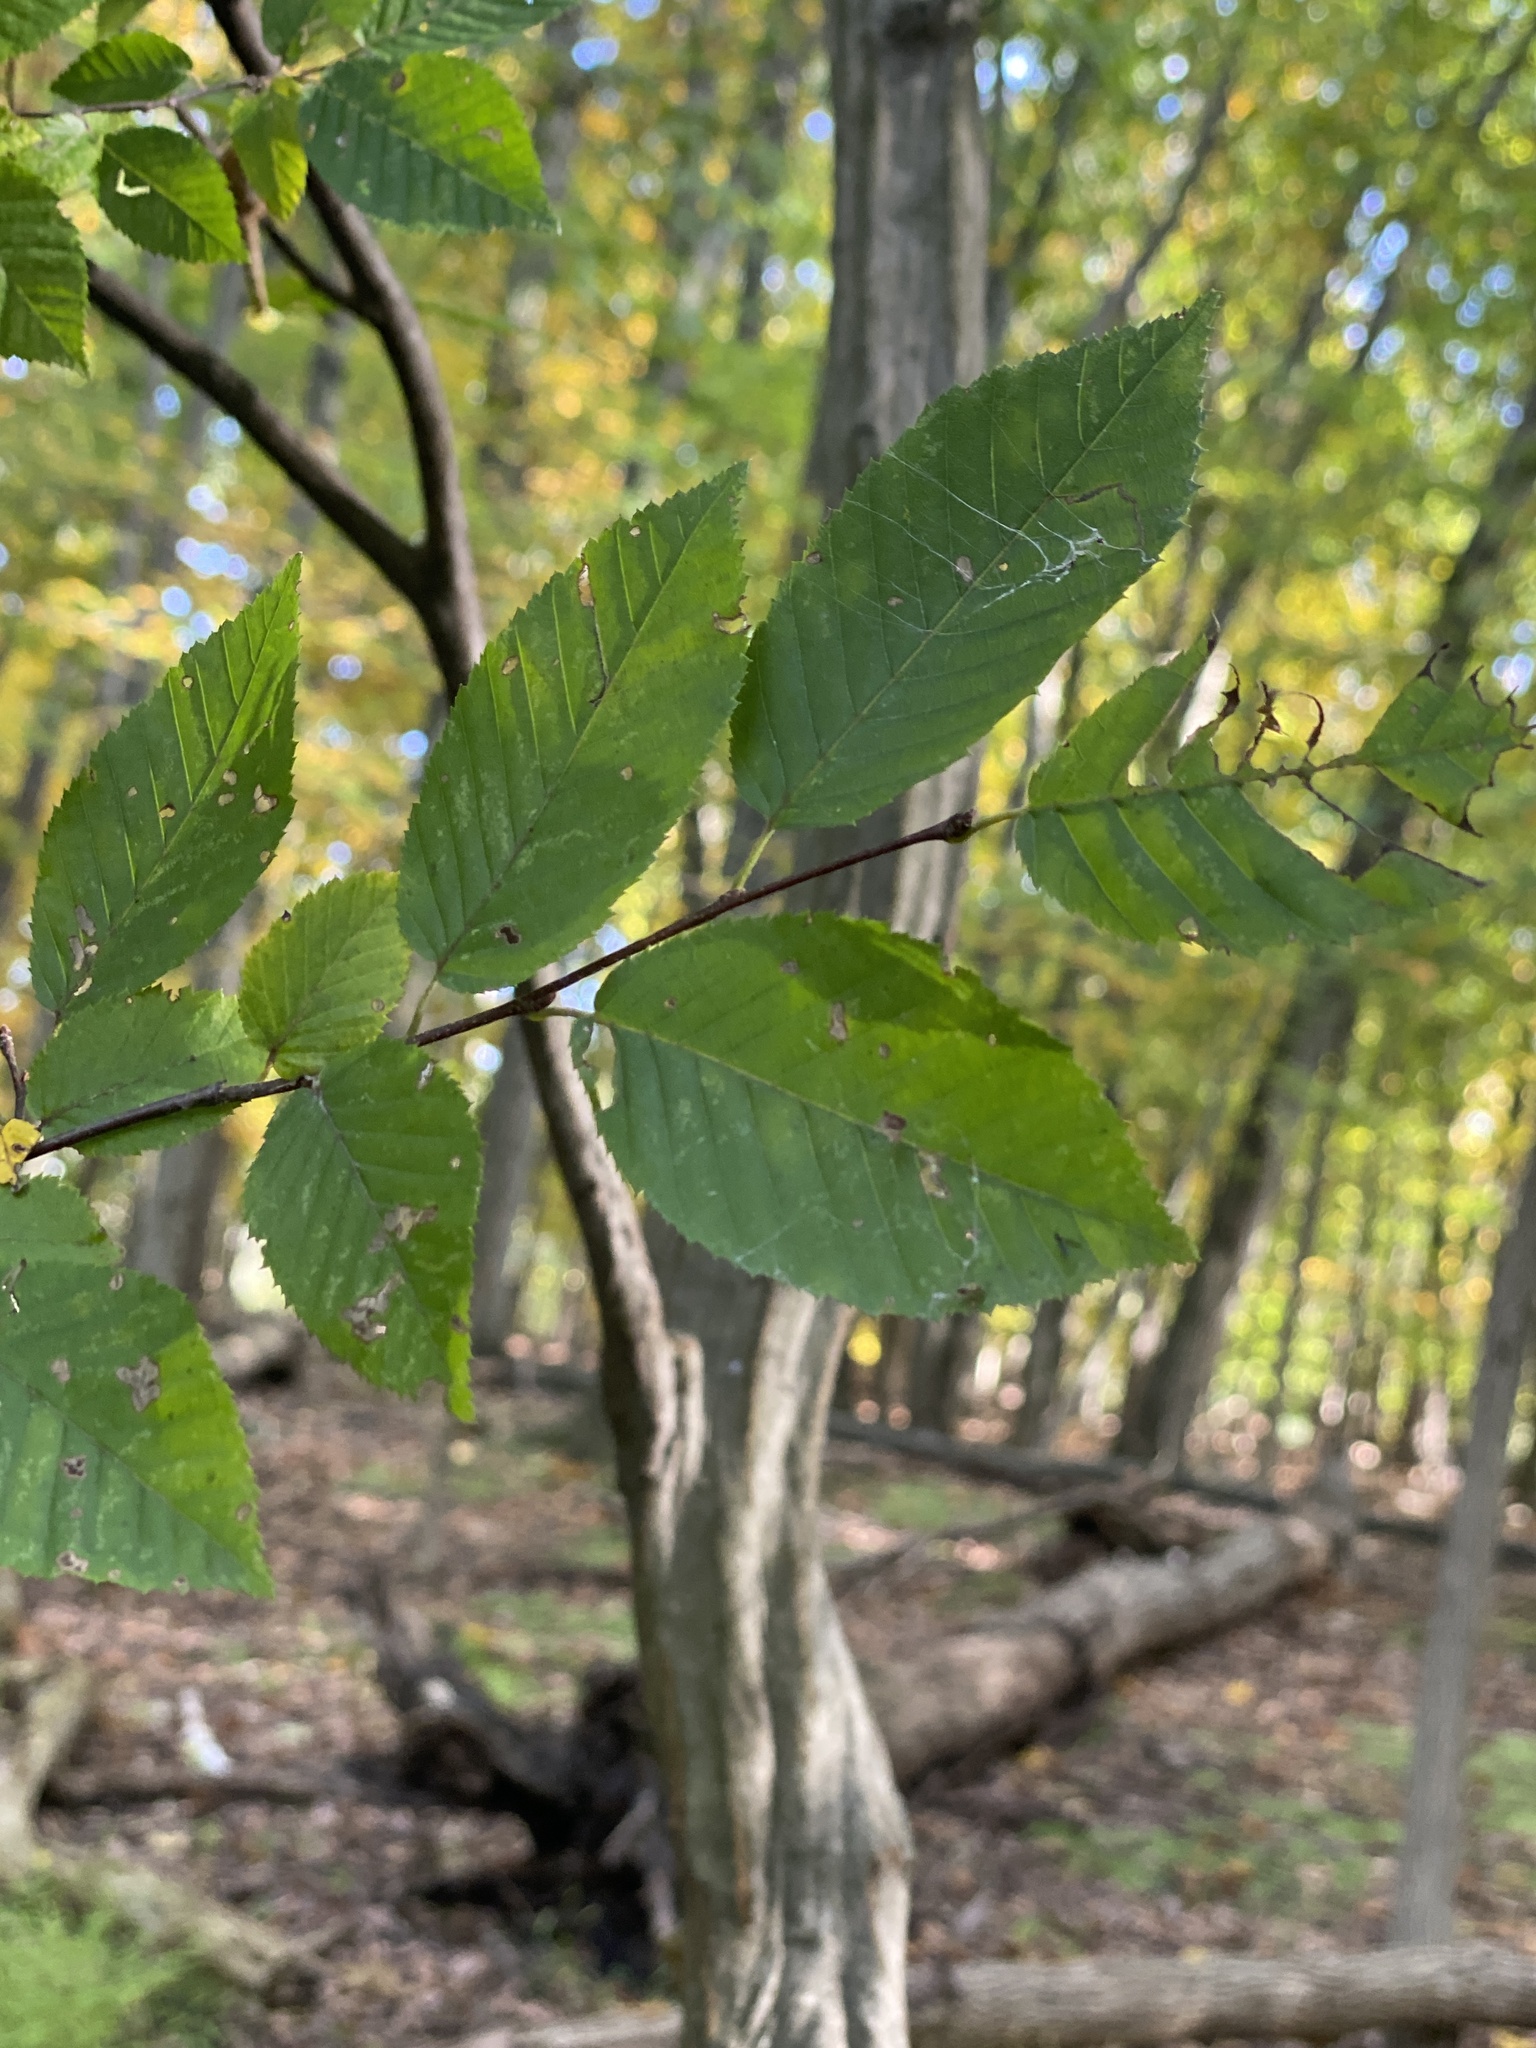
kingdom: Plantae
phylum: Tracheophyta
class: Magnoliopsida
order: Fagales
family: Betulaceae
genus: Carpinus
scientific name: Carpinus caroliniana
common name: American hornbeam
